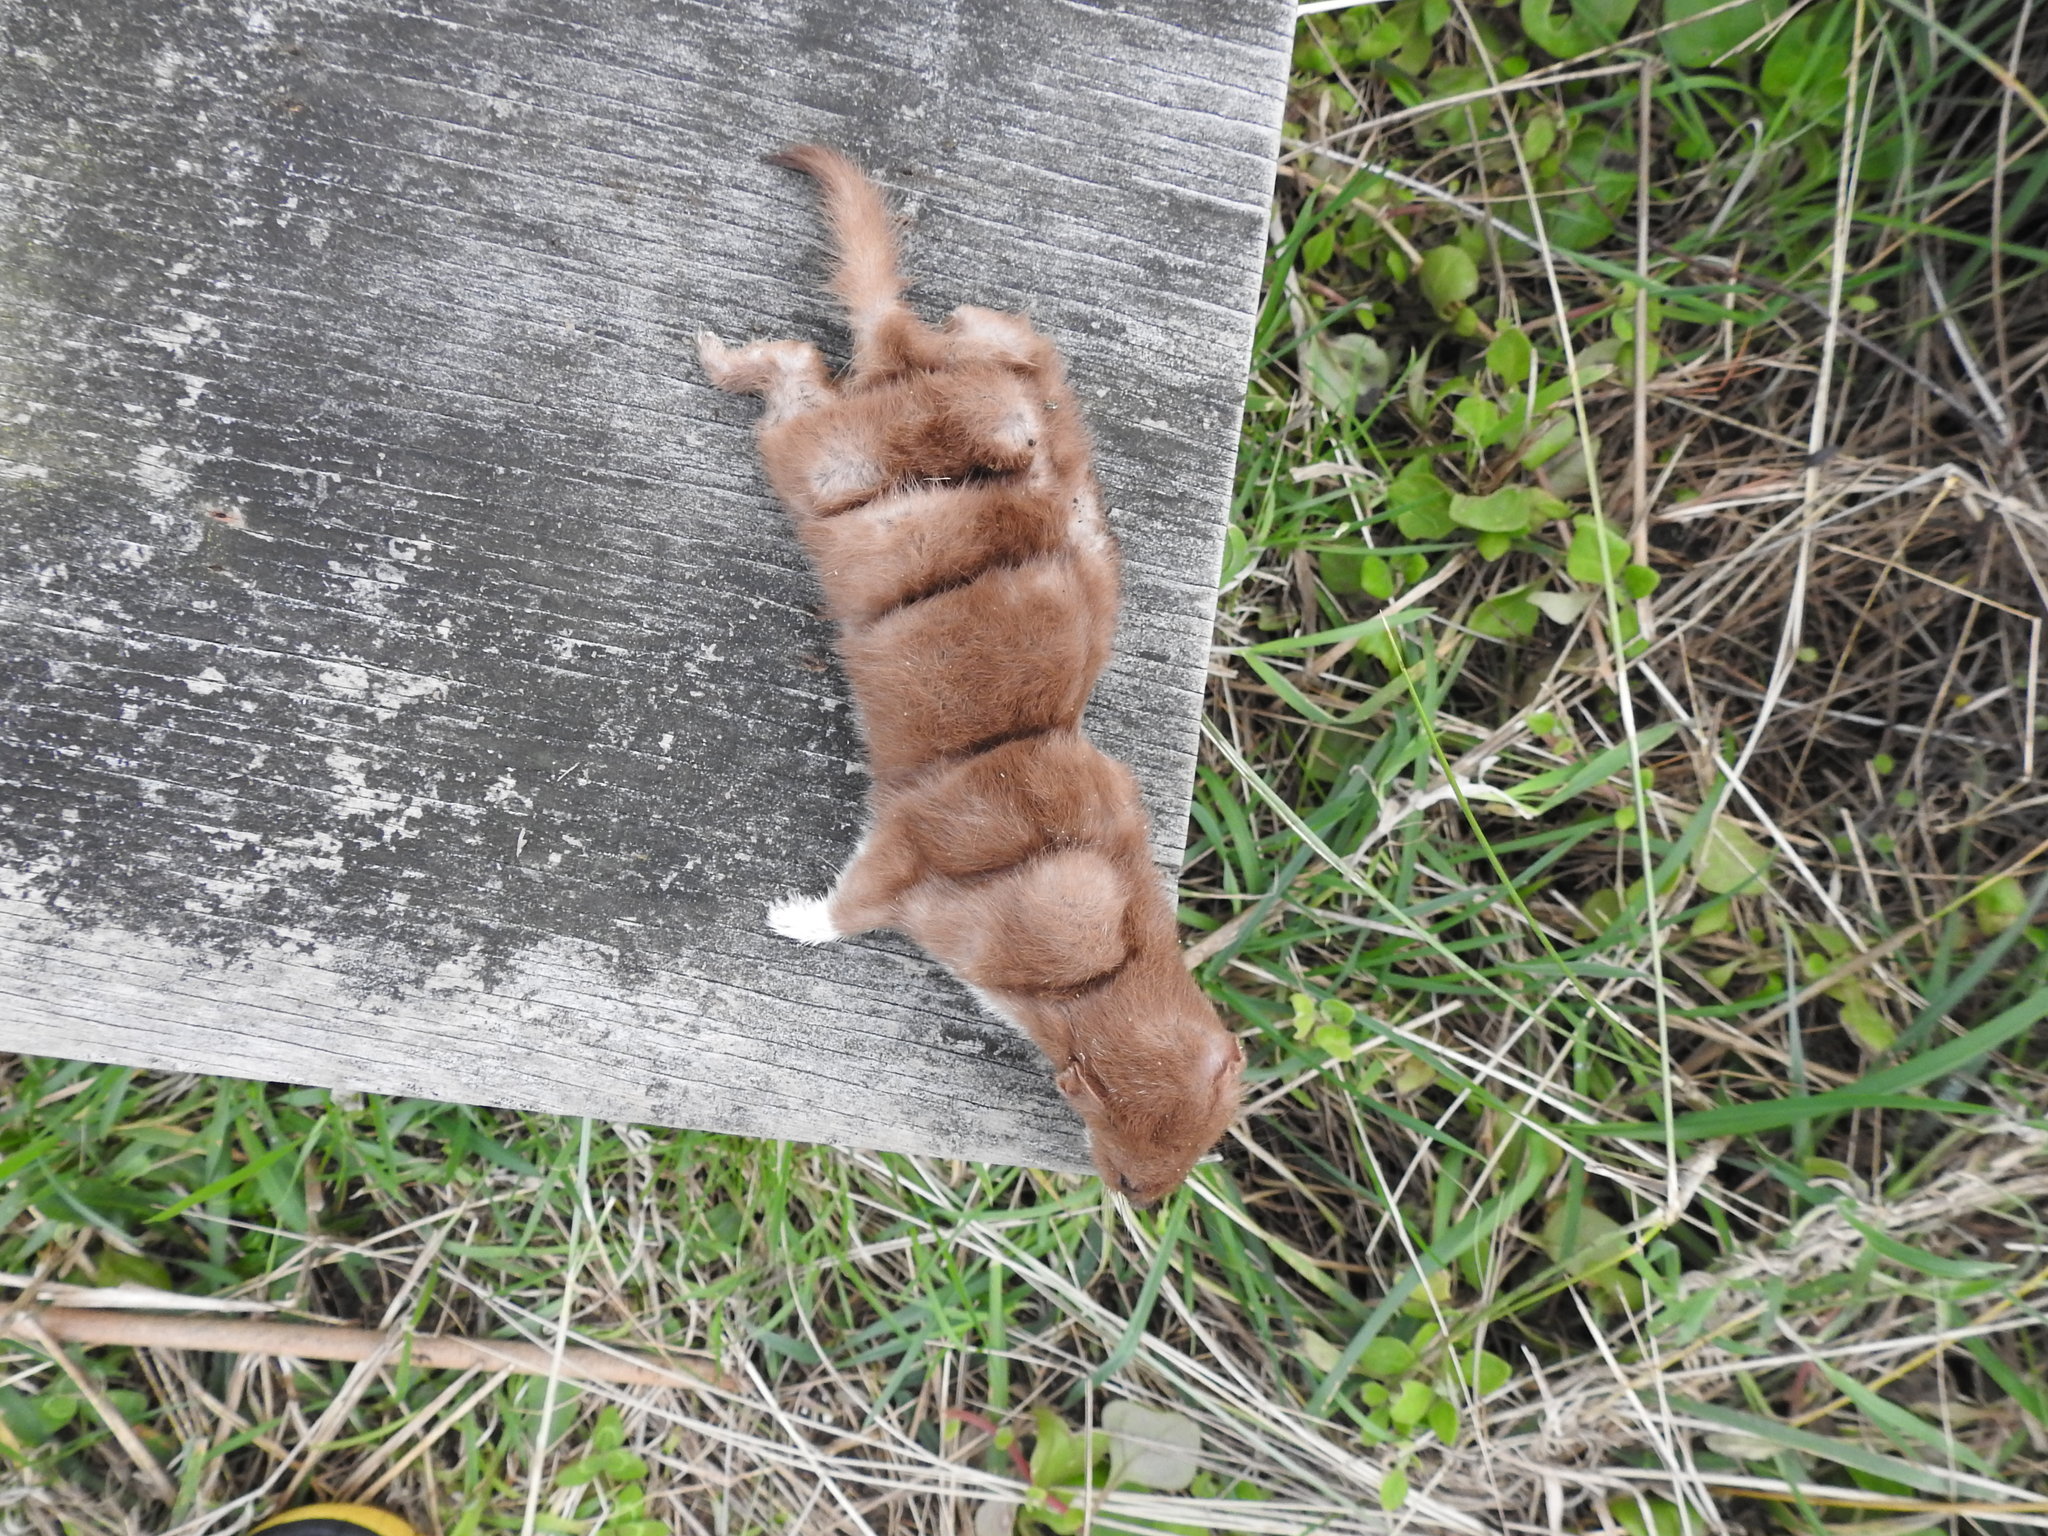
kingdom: Animalia
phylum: Chordata
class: Mammalia
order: Carnivora
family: Mustelidae
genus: Mustela
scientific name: Mustela nivalis
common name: Least weasel
